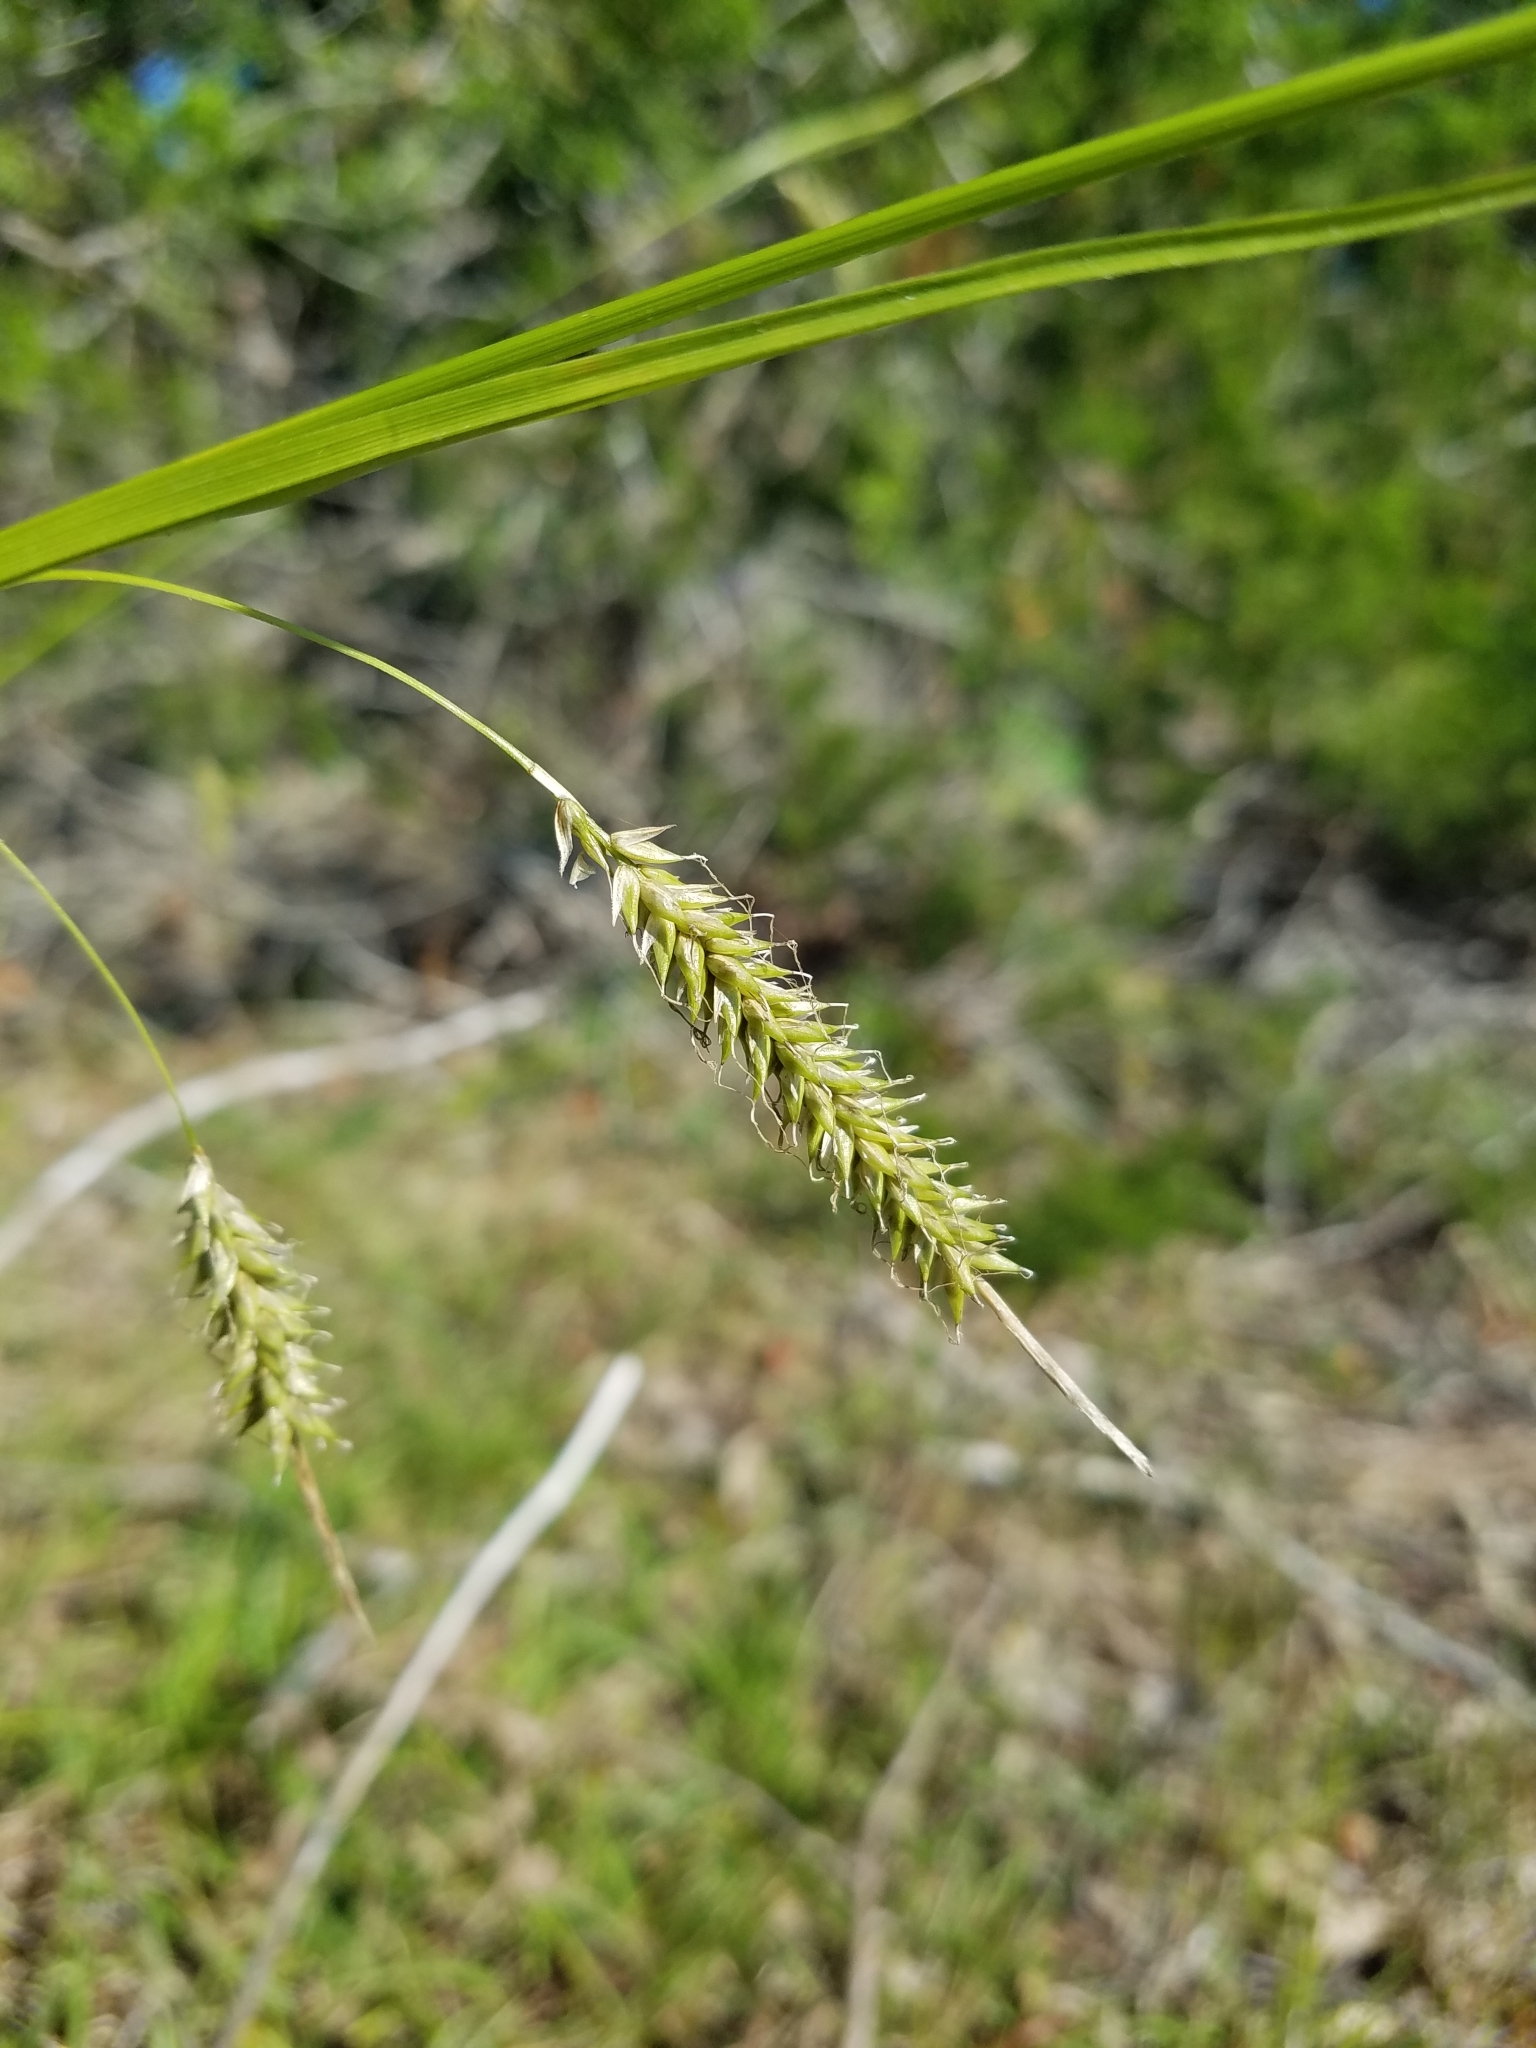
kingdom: Plantae
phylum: Tracheophyta
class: Liliopsida
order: Poales
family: Cyperaceae
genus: Carex
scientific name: Carex cherokeensis
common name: Cherokee sedge
